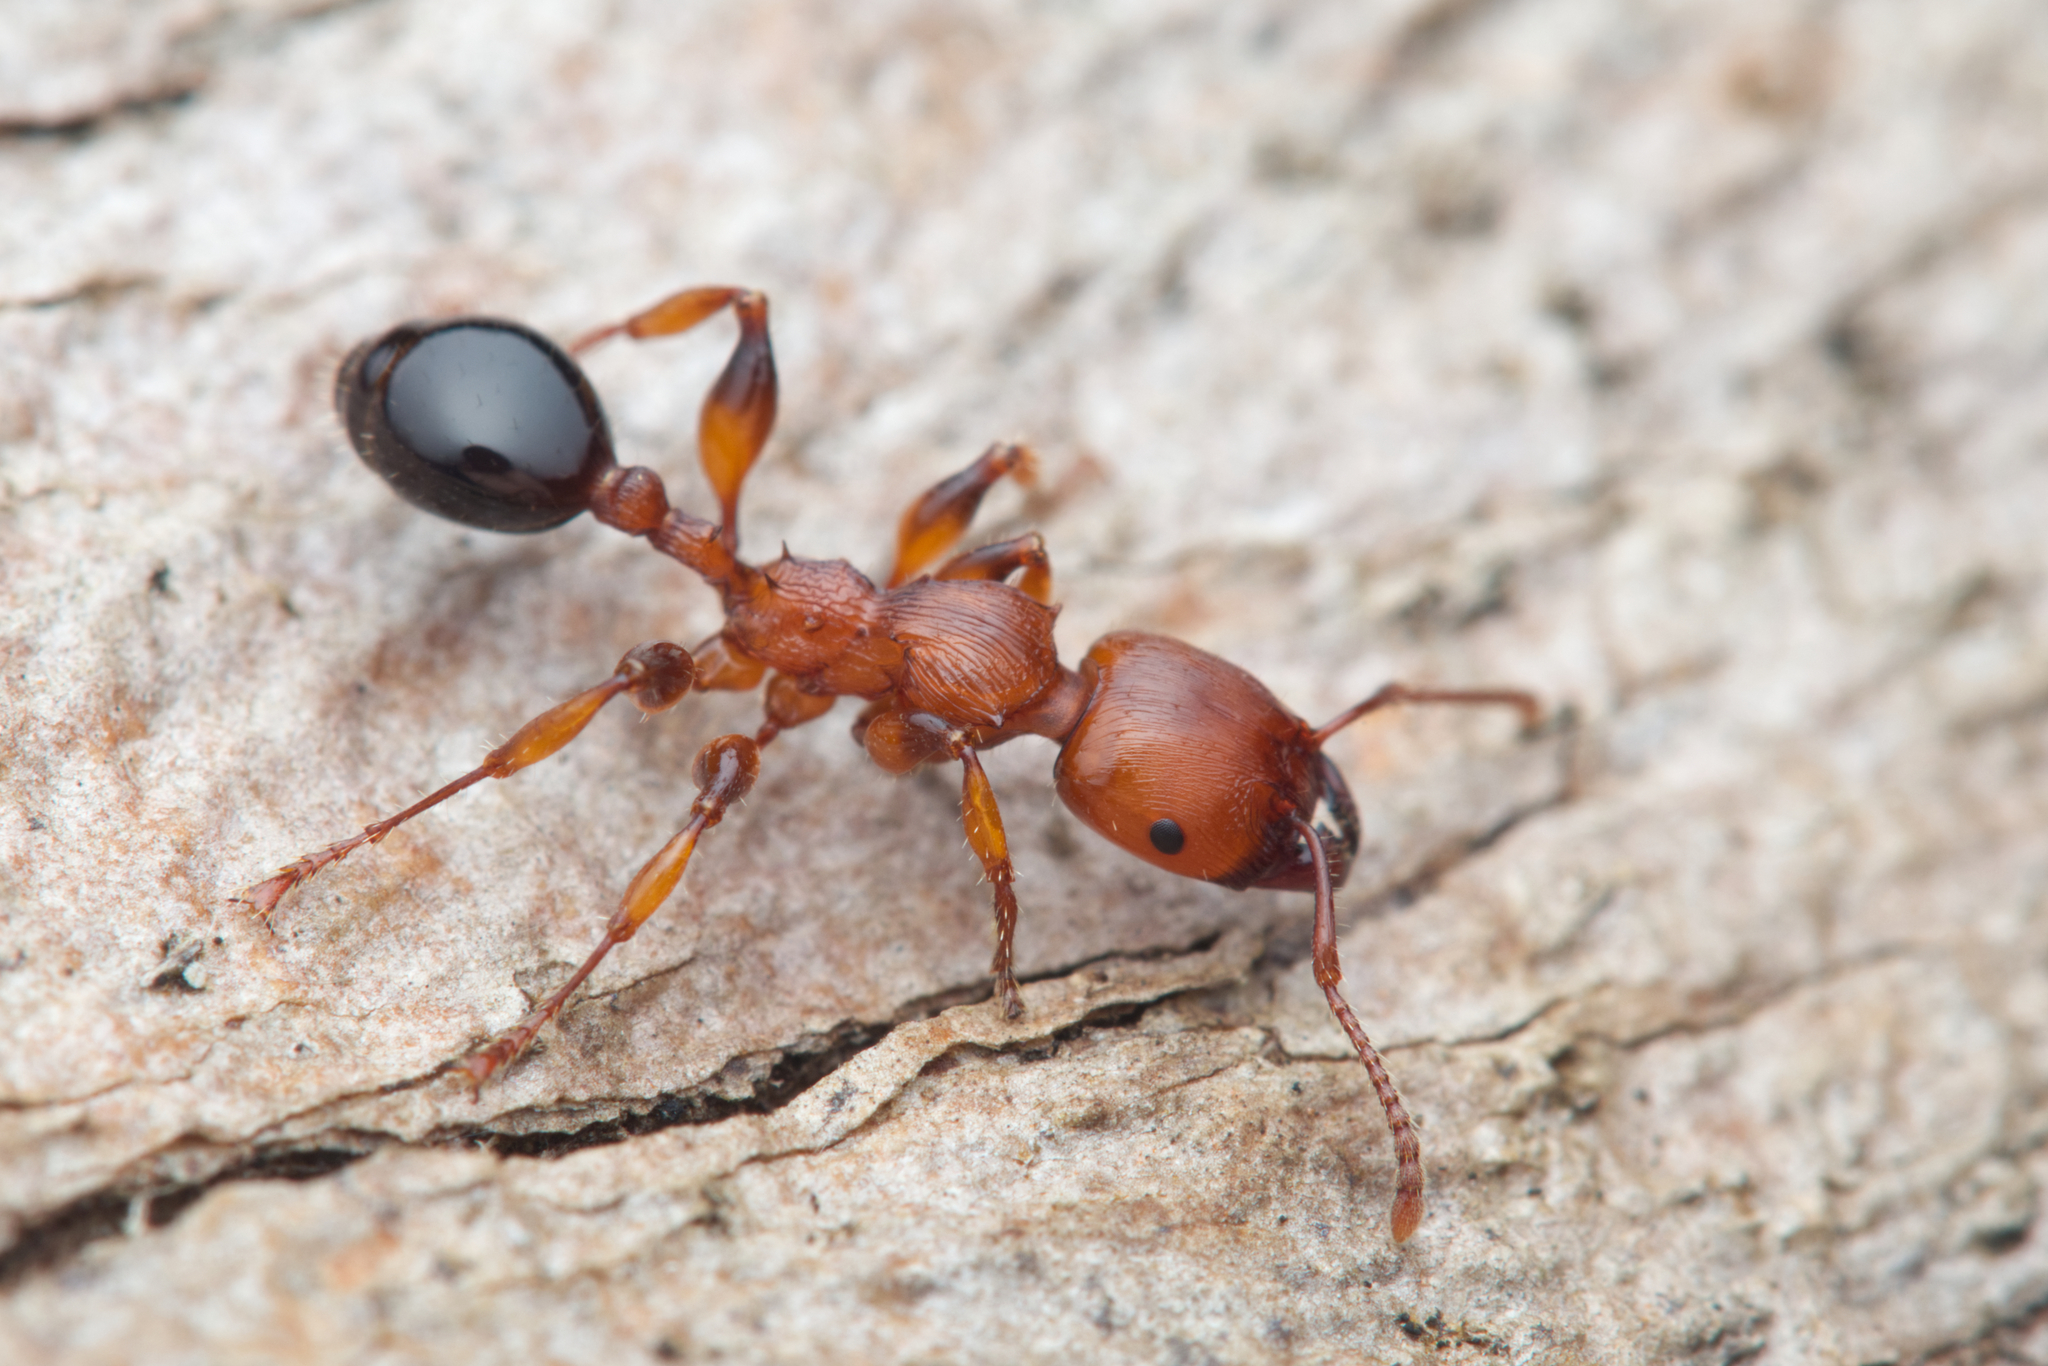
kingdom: Animalia
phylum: Arthropoda
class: Insecta
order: Hymenoptera
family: Formicidae
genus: Podomyrma
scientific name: Podomyrma gratiosa
